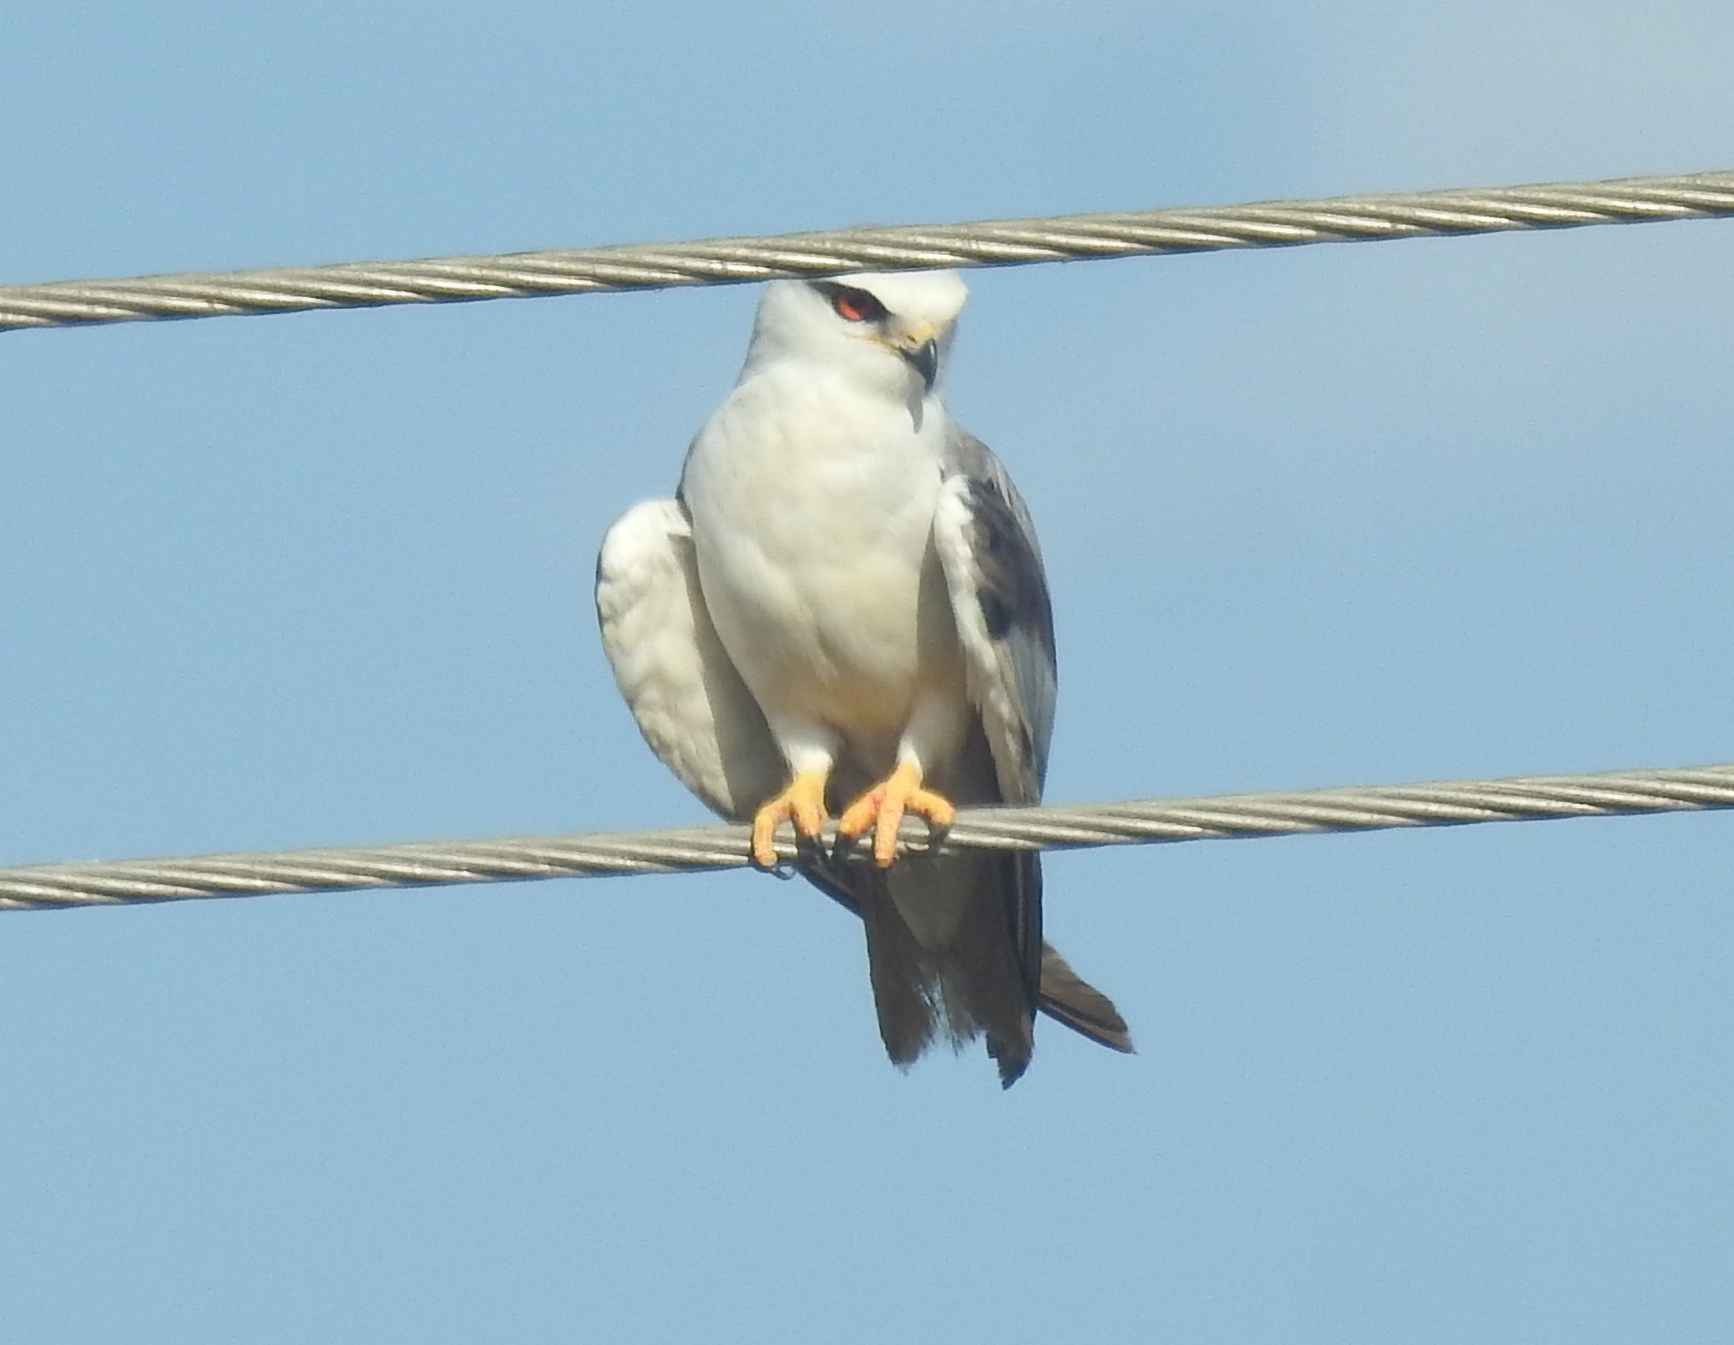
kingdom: Animalia
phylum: Chordata
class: Aves
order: Accipitriformes
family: Accipitridae
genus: Elanus
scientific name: Elanus caeruleus
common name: Black-winged kite
